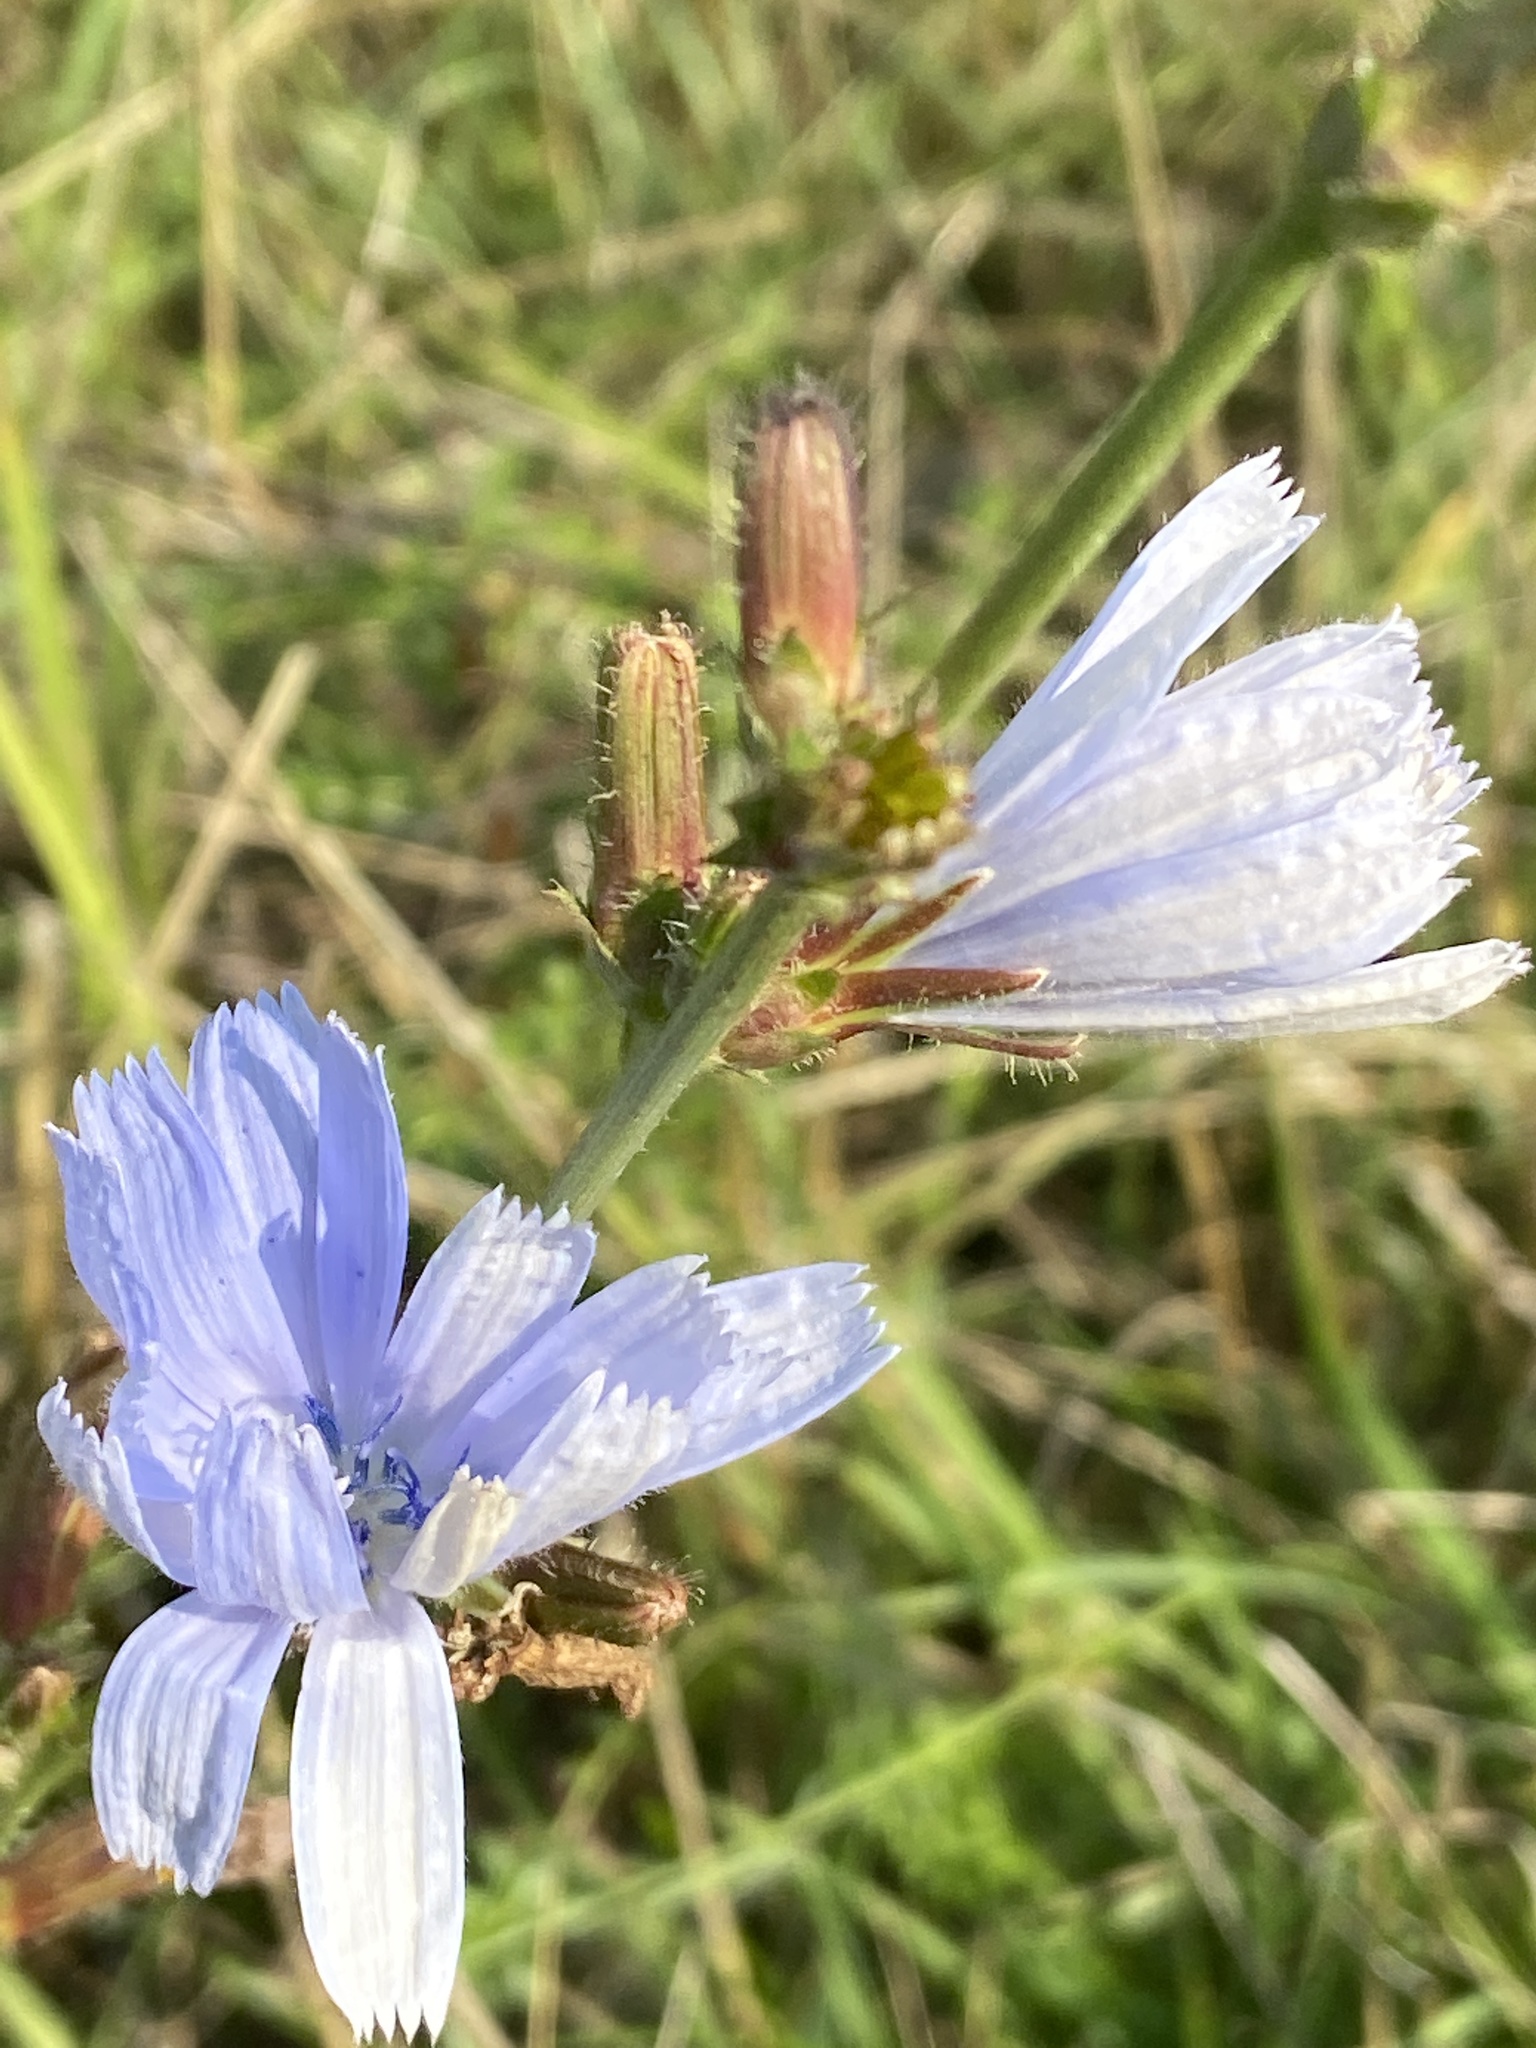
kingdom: Plantae
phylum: Tracheophyta
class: Magnoliopsida
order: Asterales
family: Asteraceae
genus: Cichorium
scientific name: Cichorium intybus
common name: Chicory
